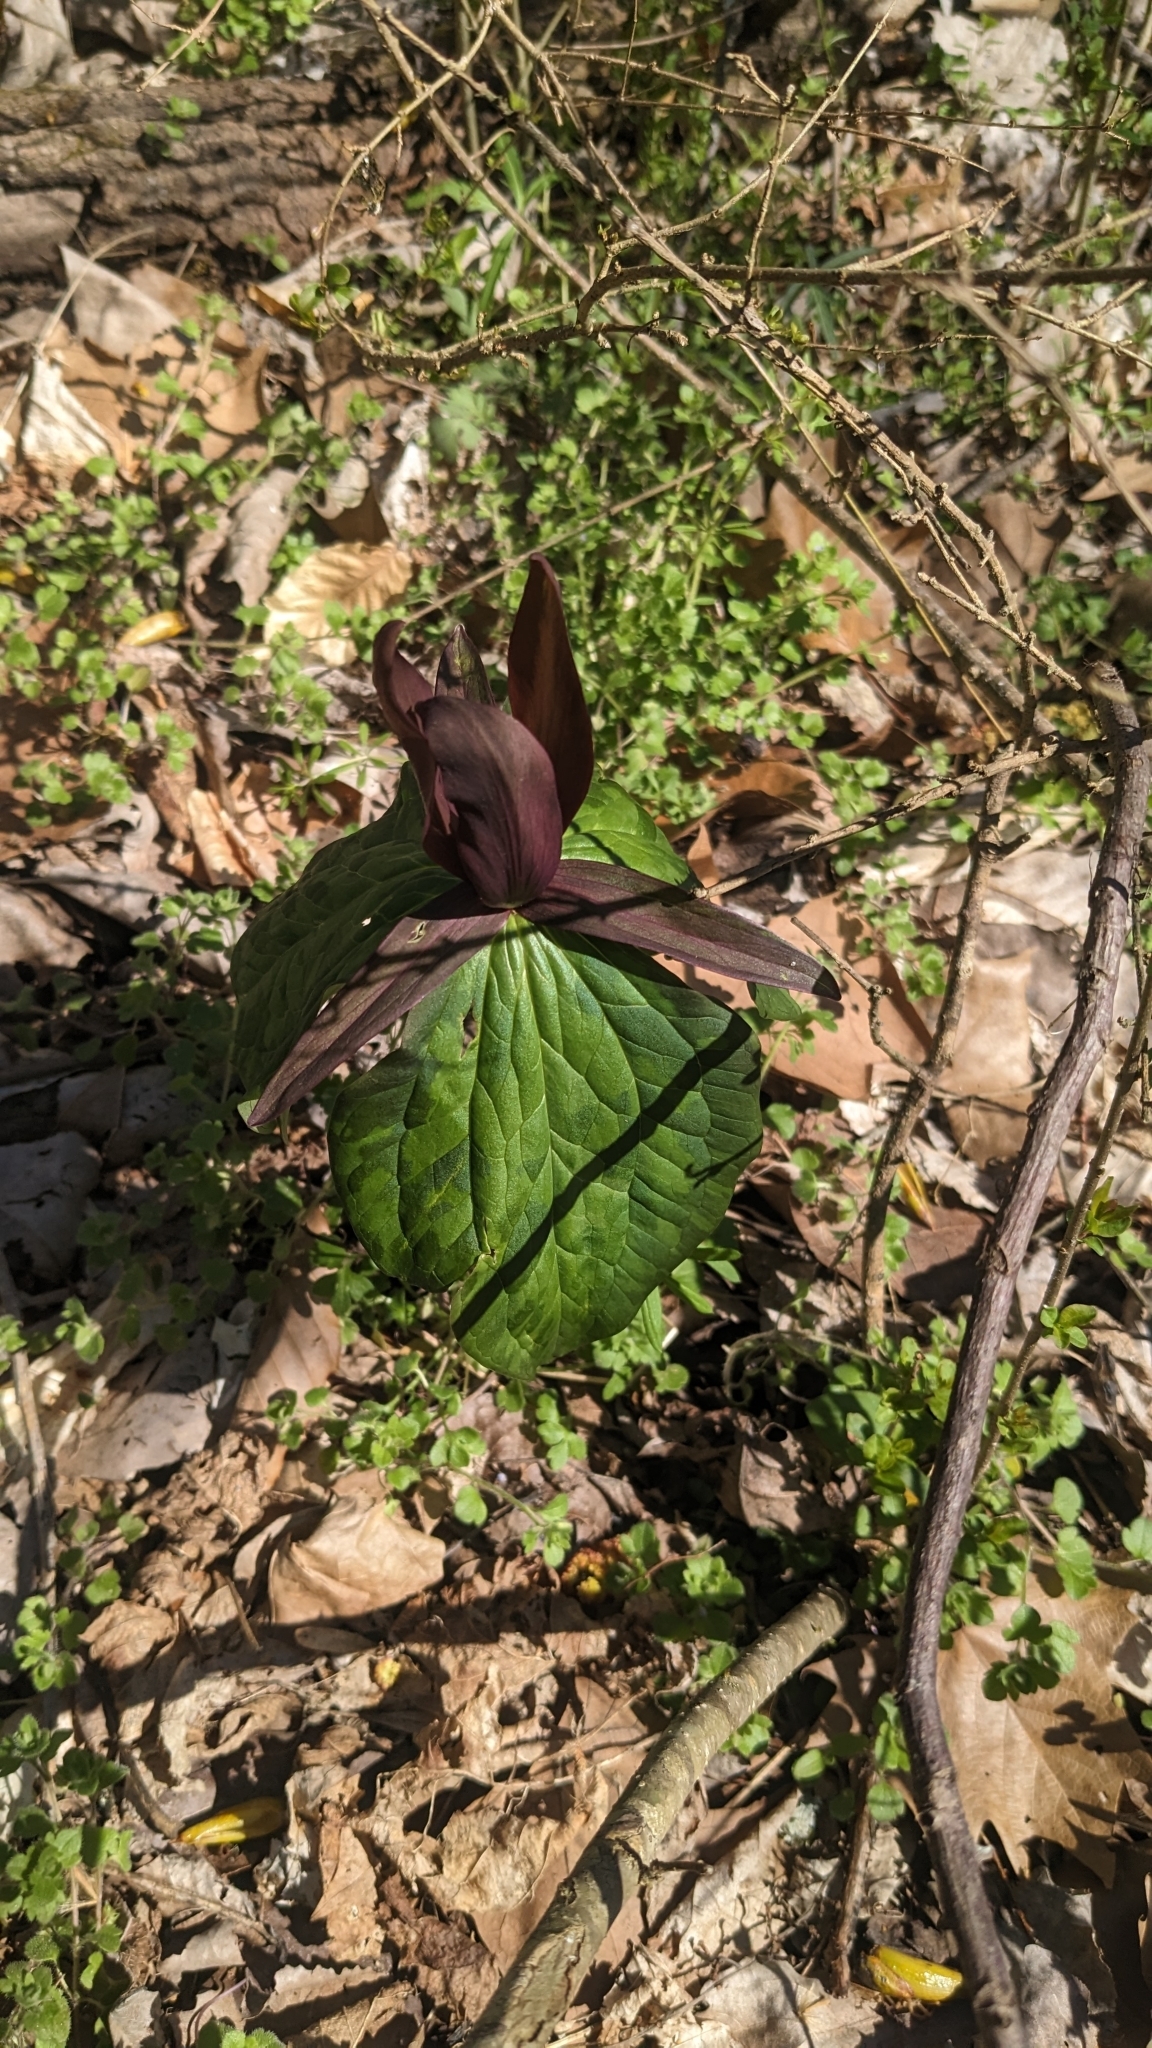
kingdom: Plantae
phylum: Tracheophyta
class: Liliopsida
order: Liliales
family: Melanthiaceae
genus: Trillium
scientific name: Trillium cuneatum
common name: Cuneate trillium
